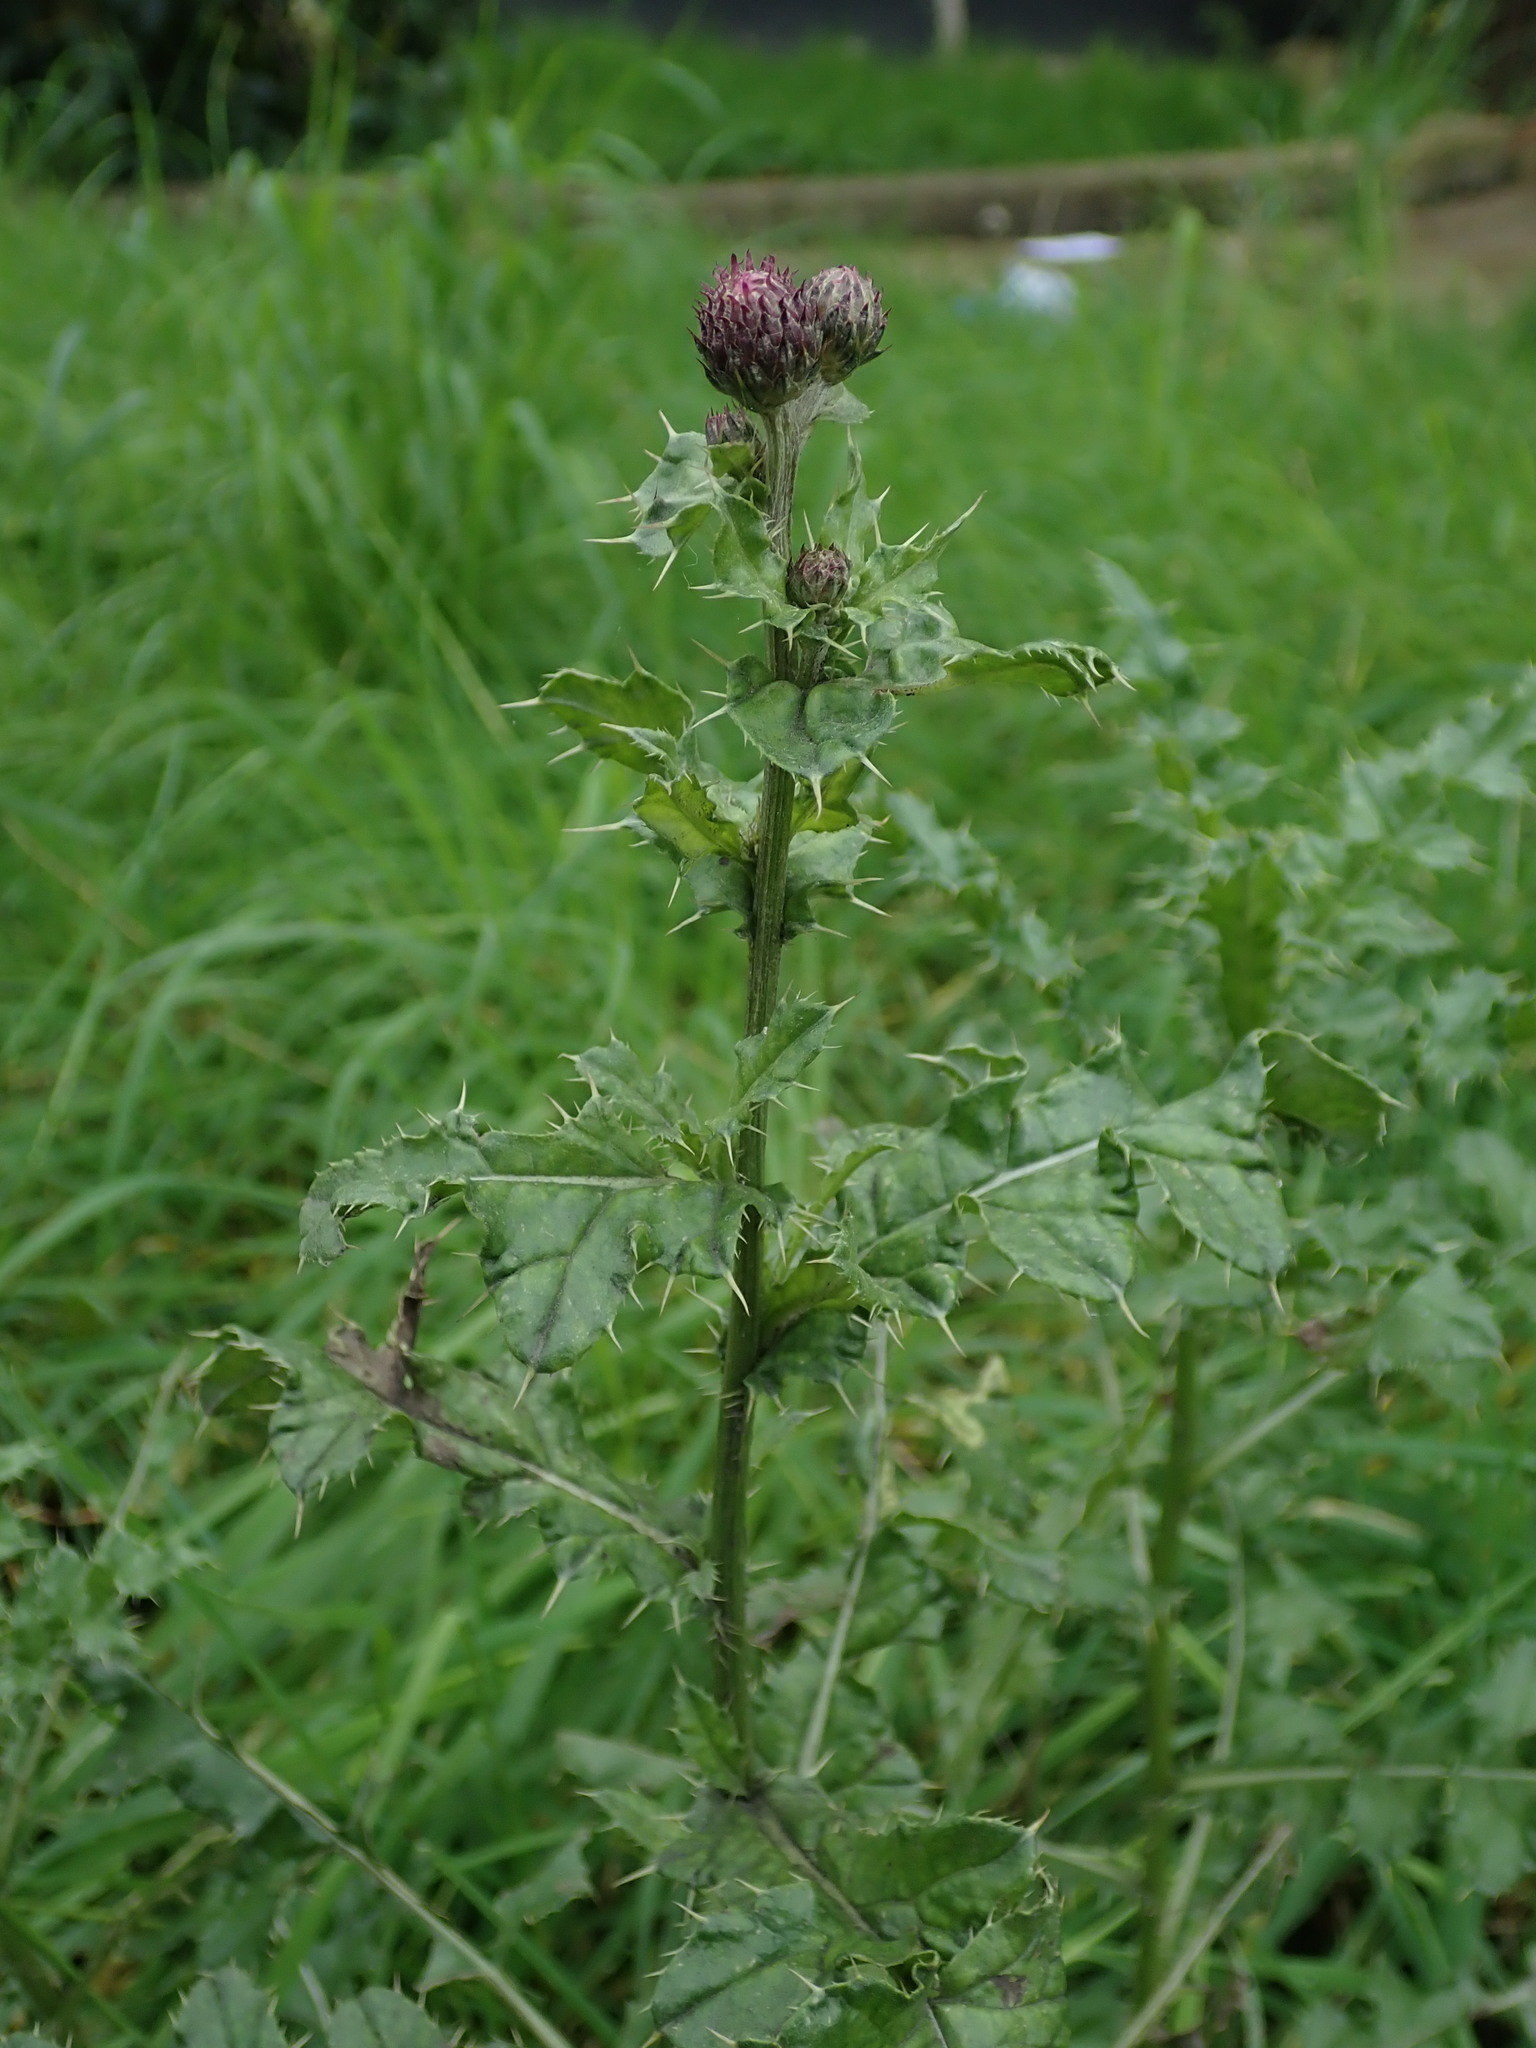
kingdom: Plantae
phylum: Tracheophyta
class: Magnoliopsida
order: Asterales
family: Asteraceae
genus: Cirsium
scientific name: Cirsium arvense
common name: Creeping thistle
